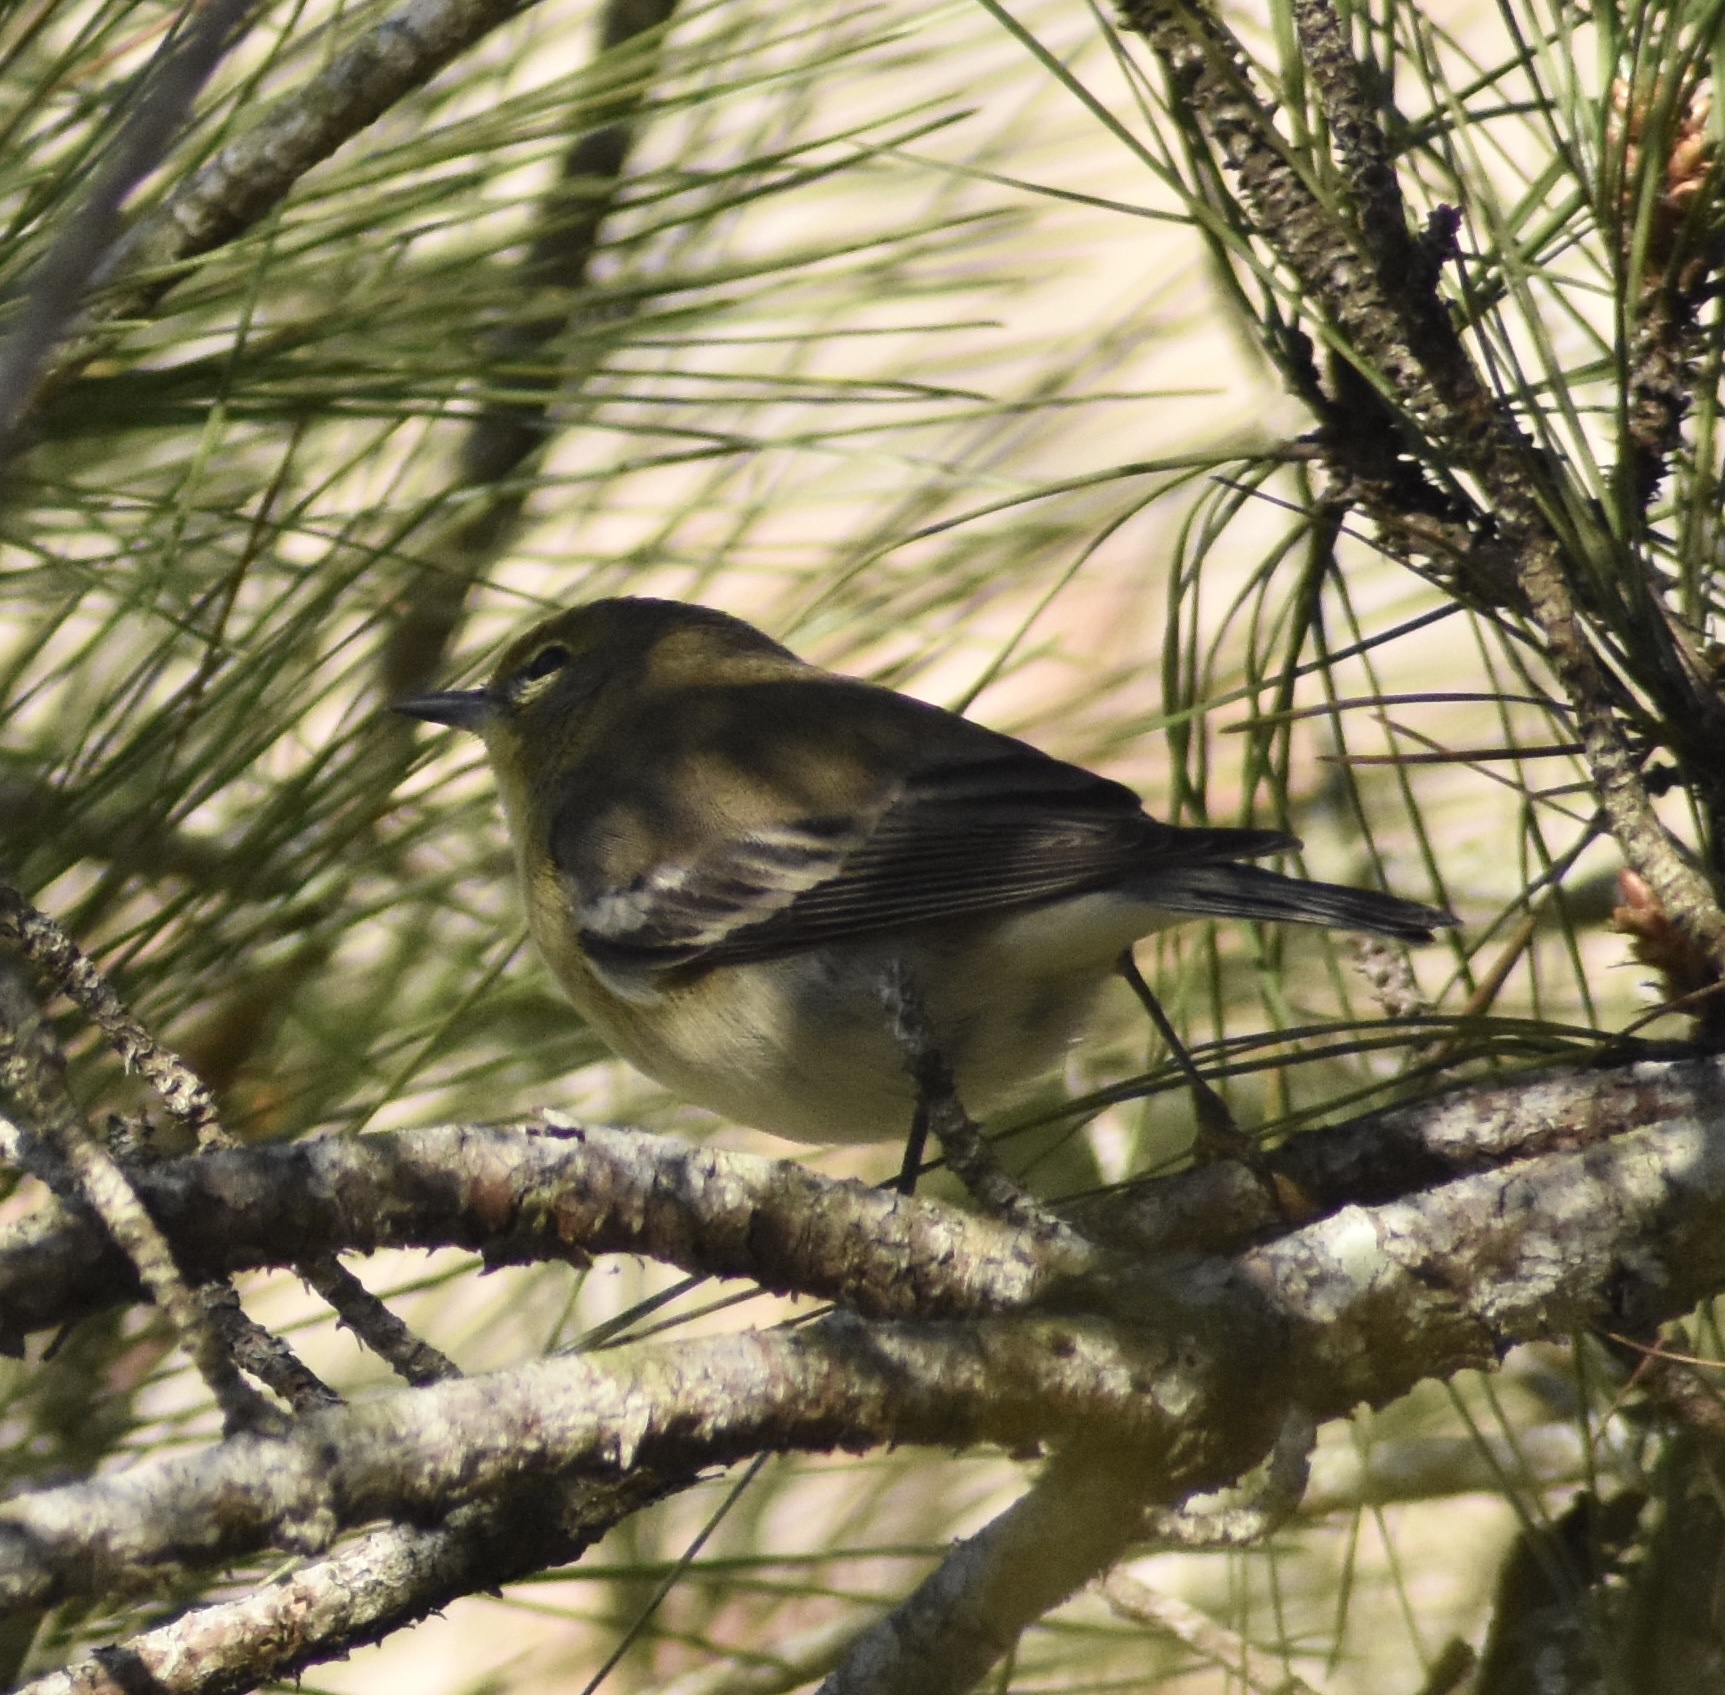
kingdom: Animalia
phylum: Chordata
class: Aves
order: Passeriformes
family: Parulidae
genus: Setophaga
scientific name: Setophaga pinus
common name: Pine warbler
